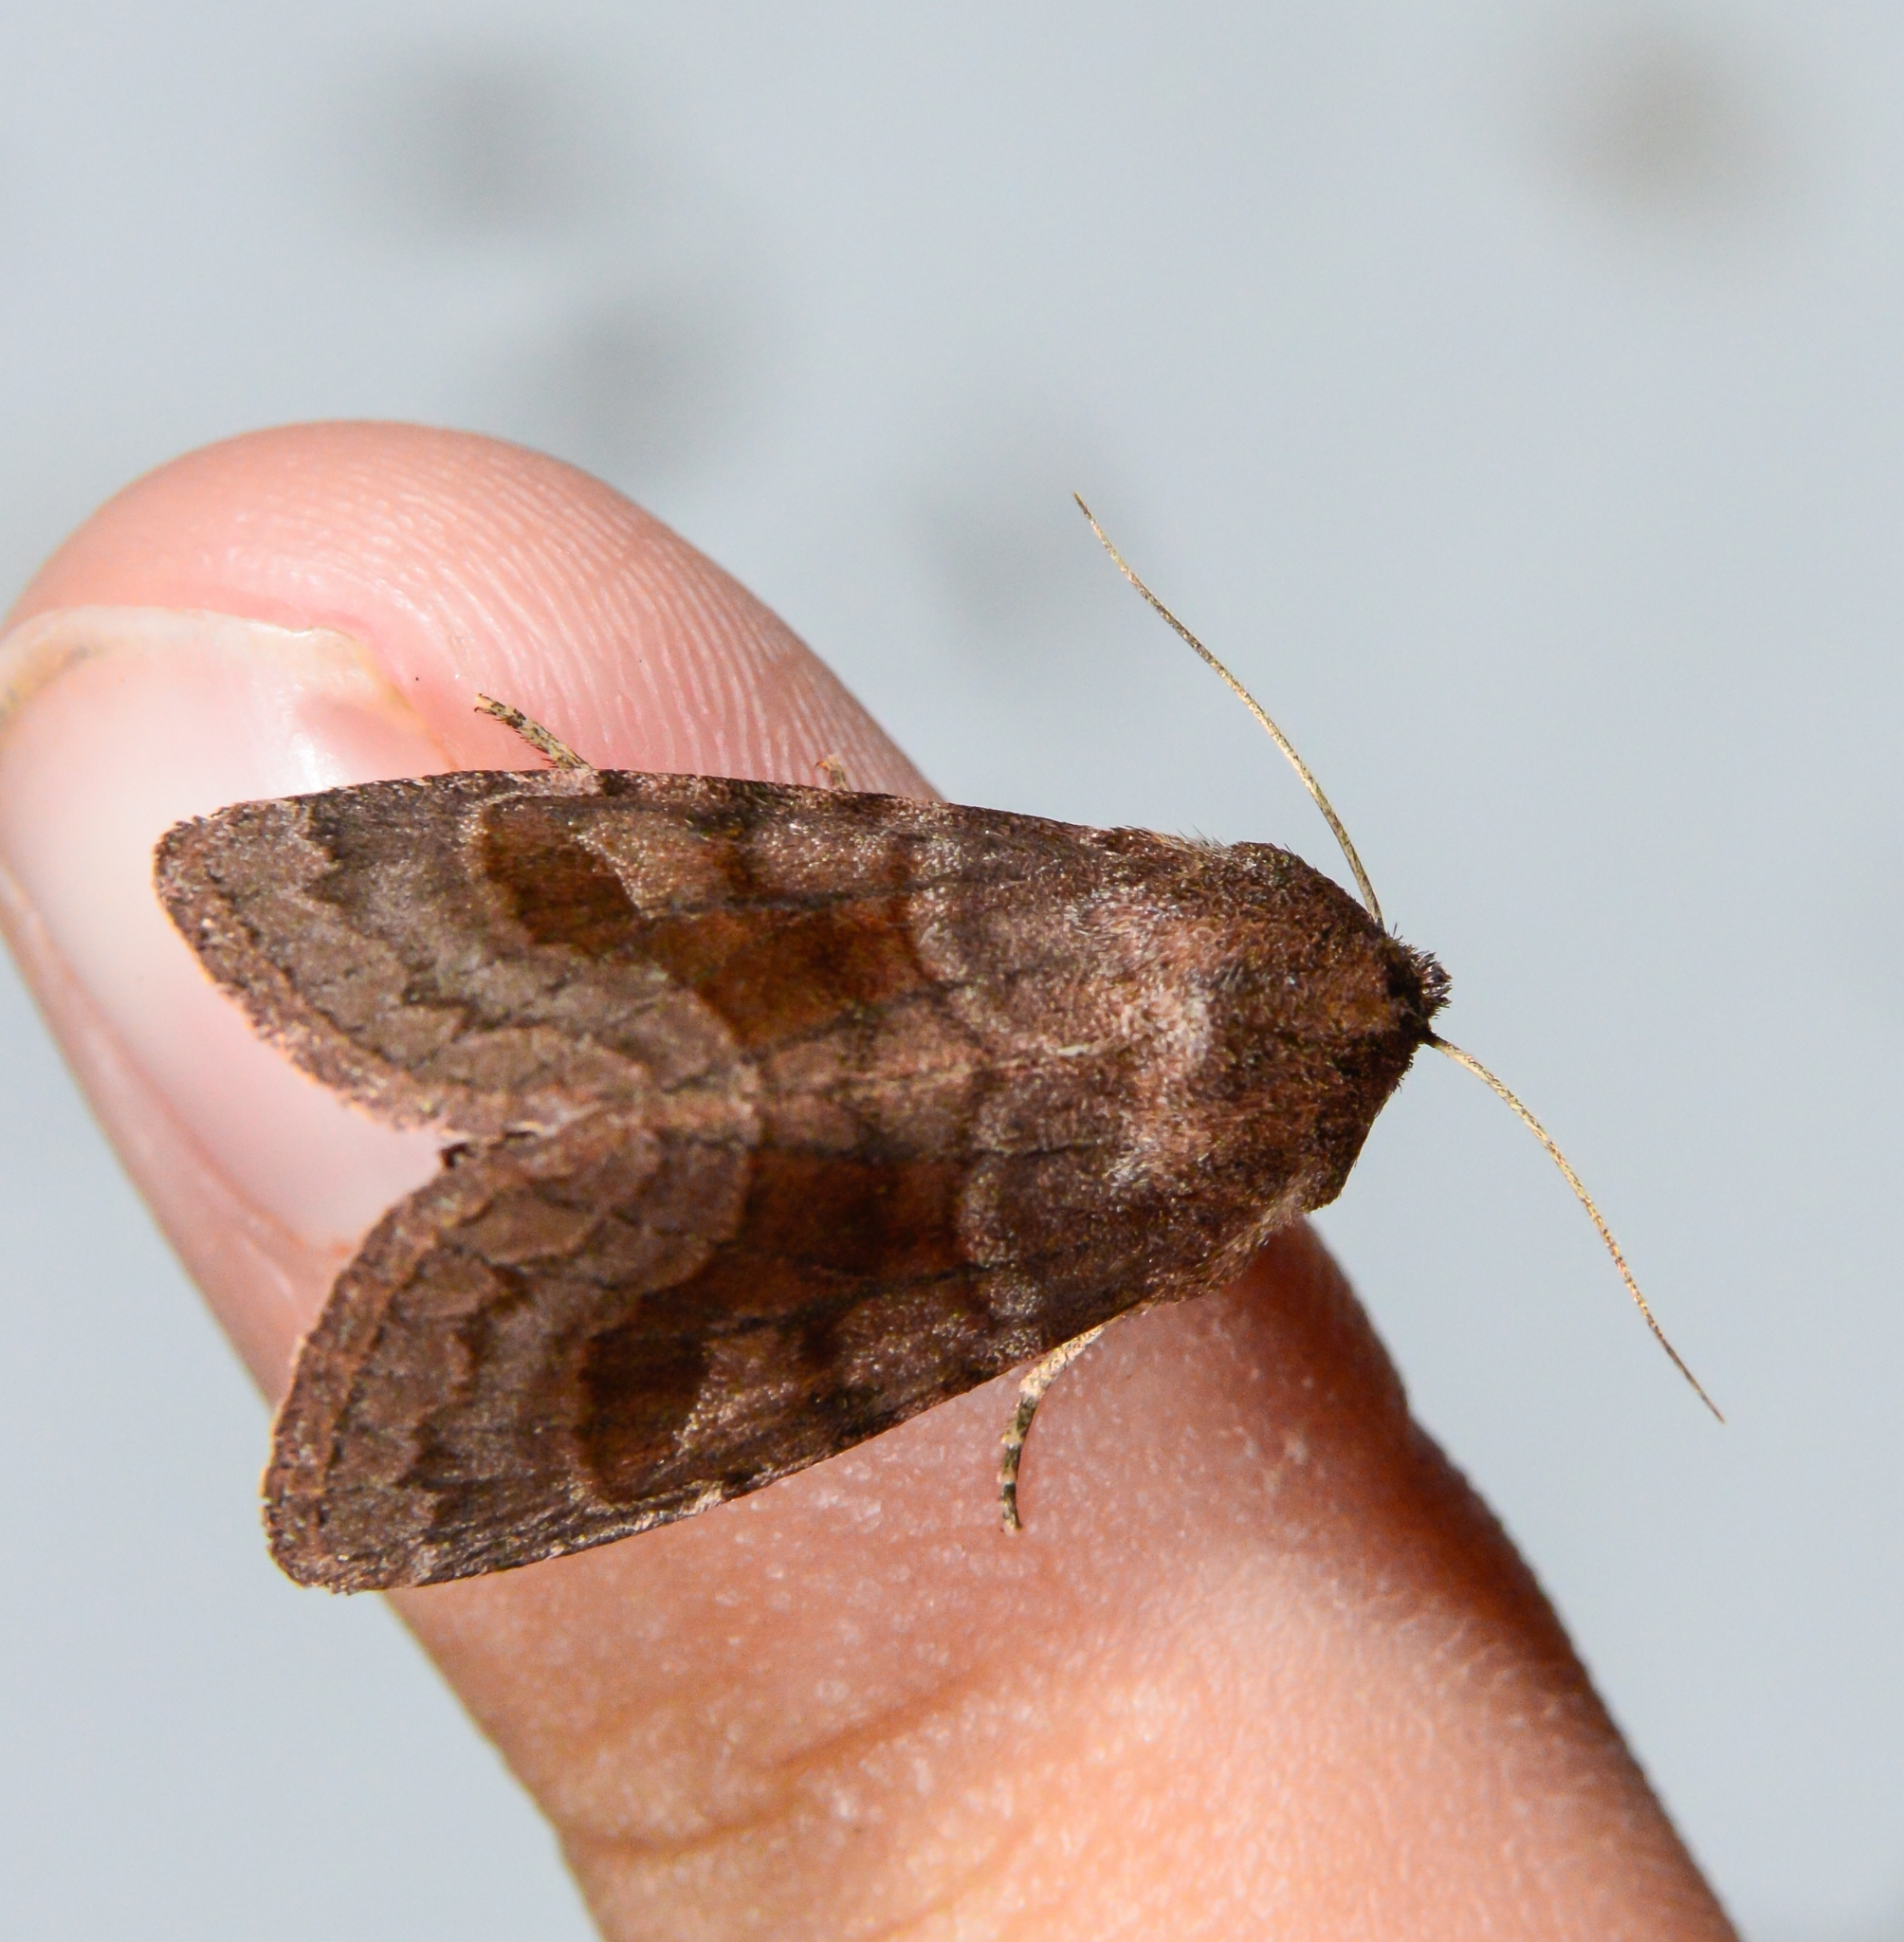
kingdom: Animalia
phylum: Arthropoda
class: Insecta
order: Lepidoptera
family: Noctuidae
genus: Nephelodes
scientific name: Nephelodes minians
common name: Bronzed cutworm
